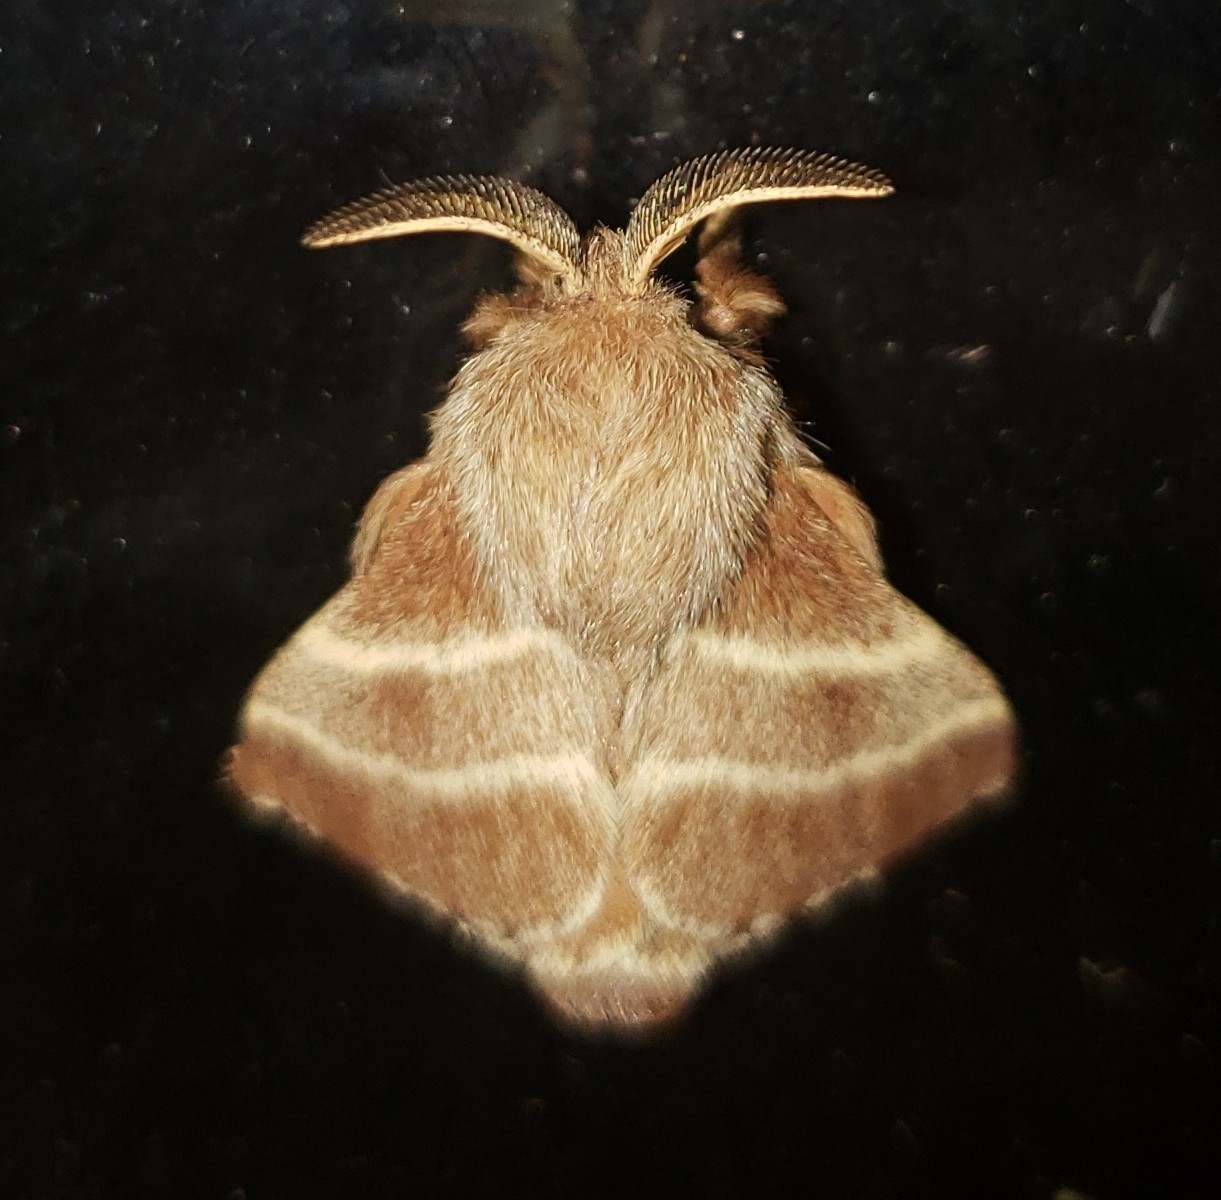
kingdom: Animalia
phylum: Arthropoda
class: Insecta
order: Lepidoptera
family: Lasiocampidae
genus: Malacosoma
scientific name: Malacosoma americana
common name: Eastern tent caterpillar moth
